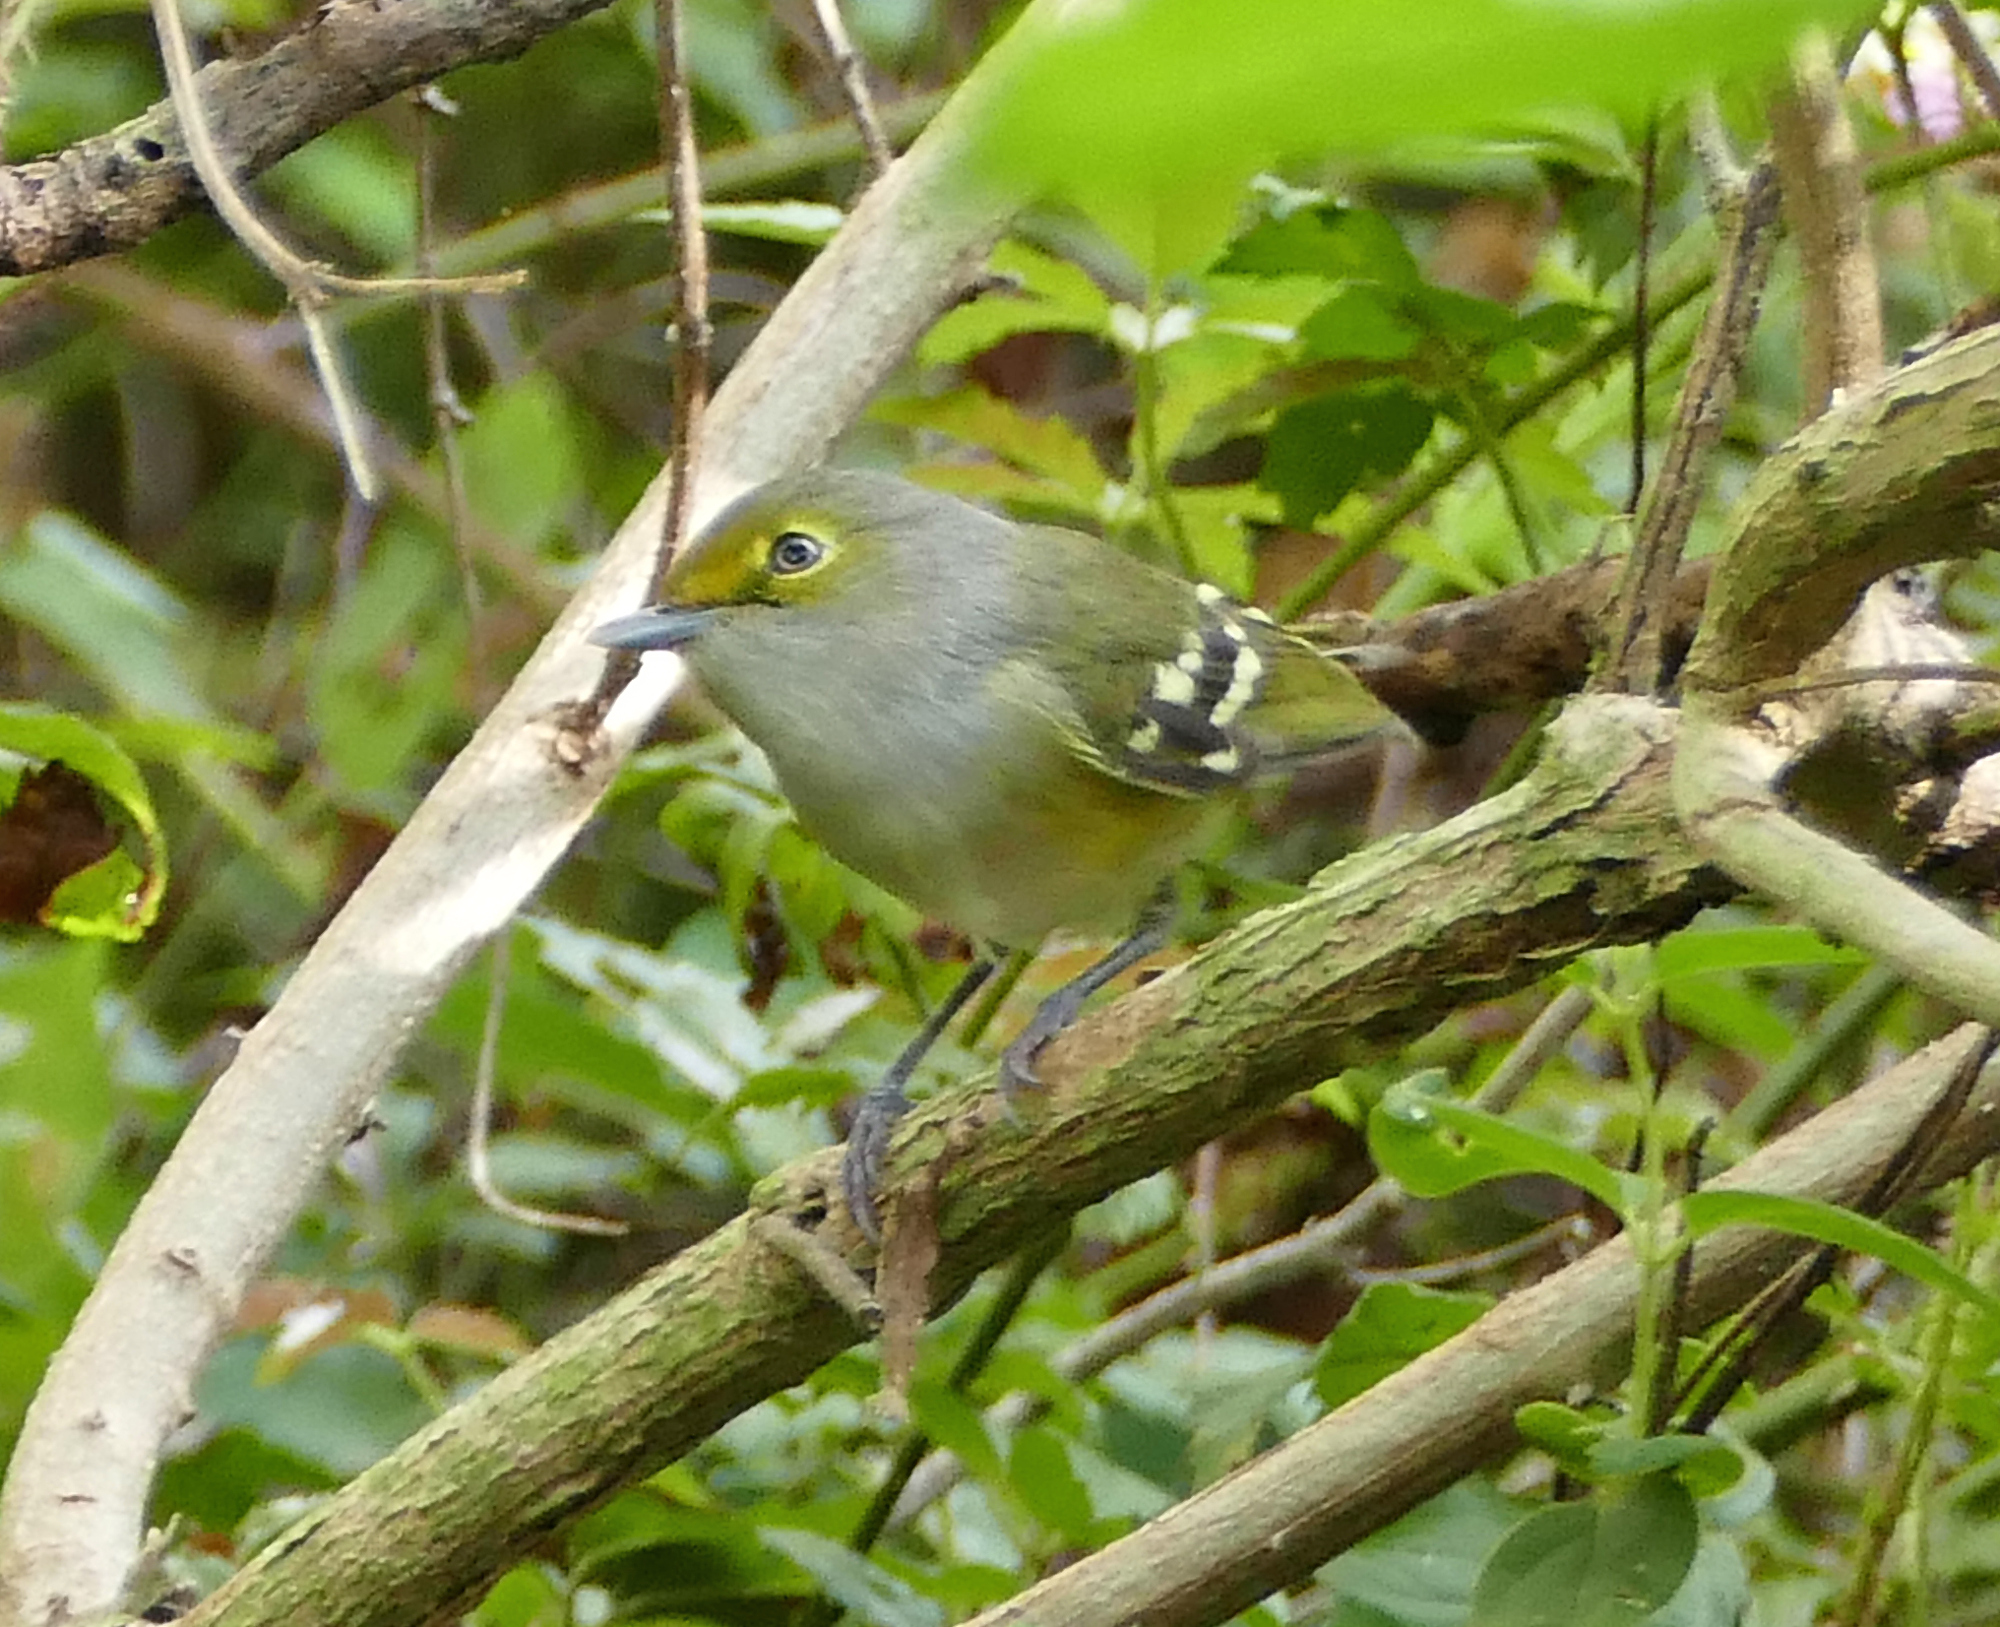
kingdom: Animalia
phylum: Chordata
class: Aves
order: Passeriformes
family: Vireonidae
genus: Vireo
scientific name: Vireo griseus
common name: White-eyed vireo
